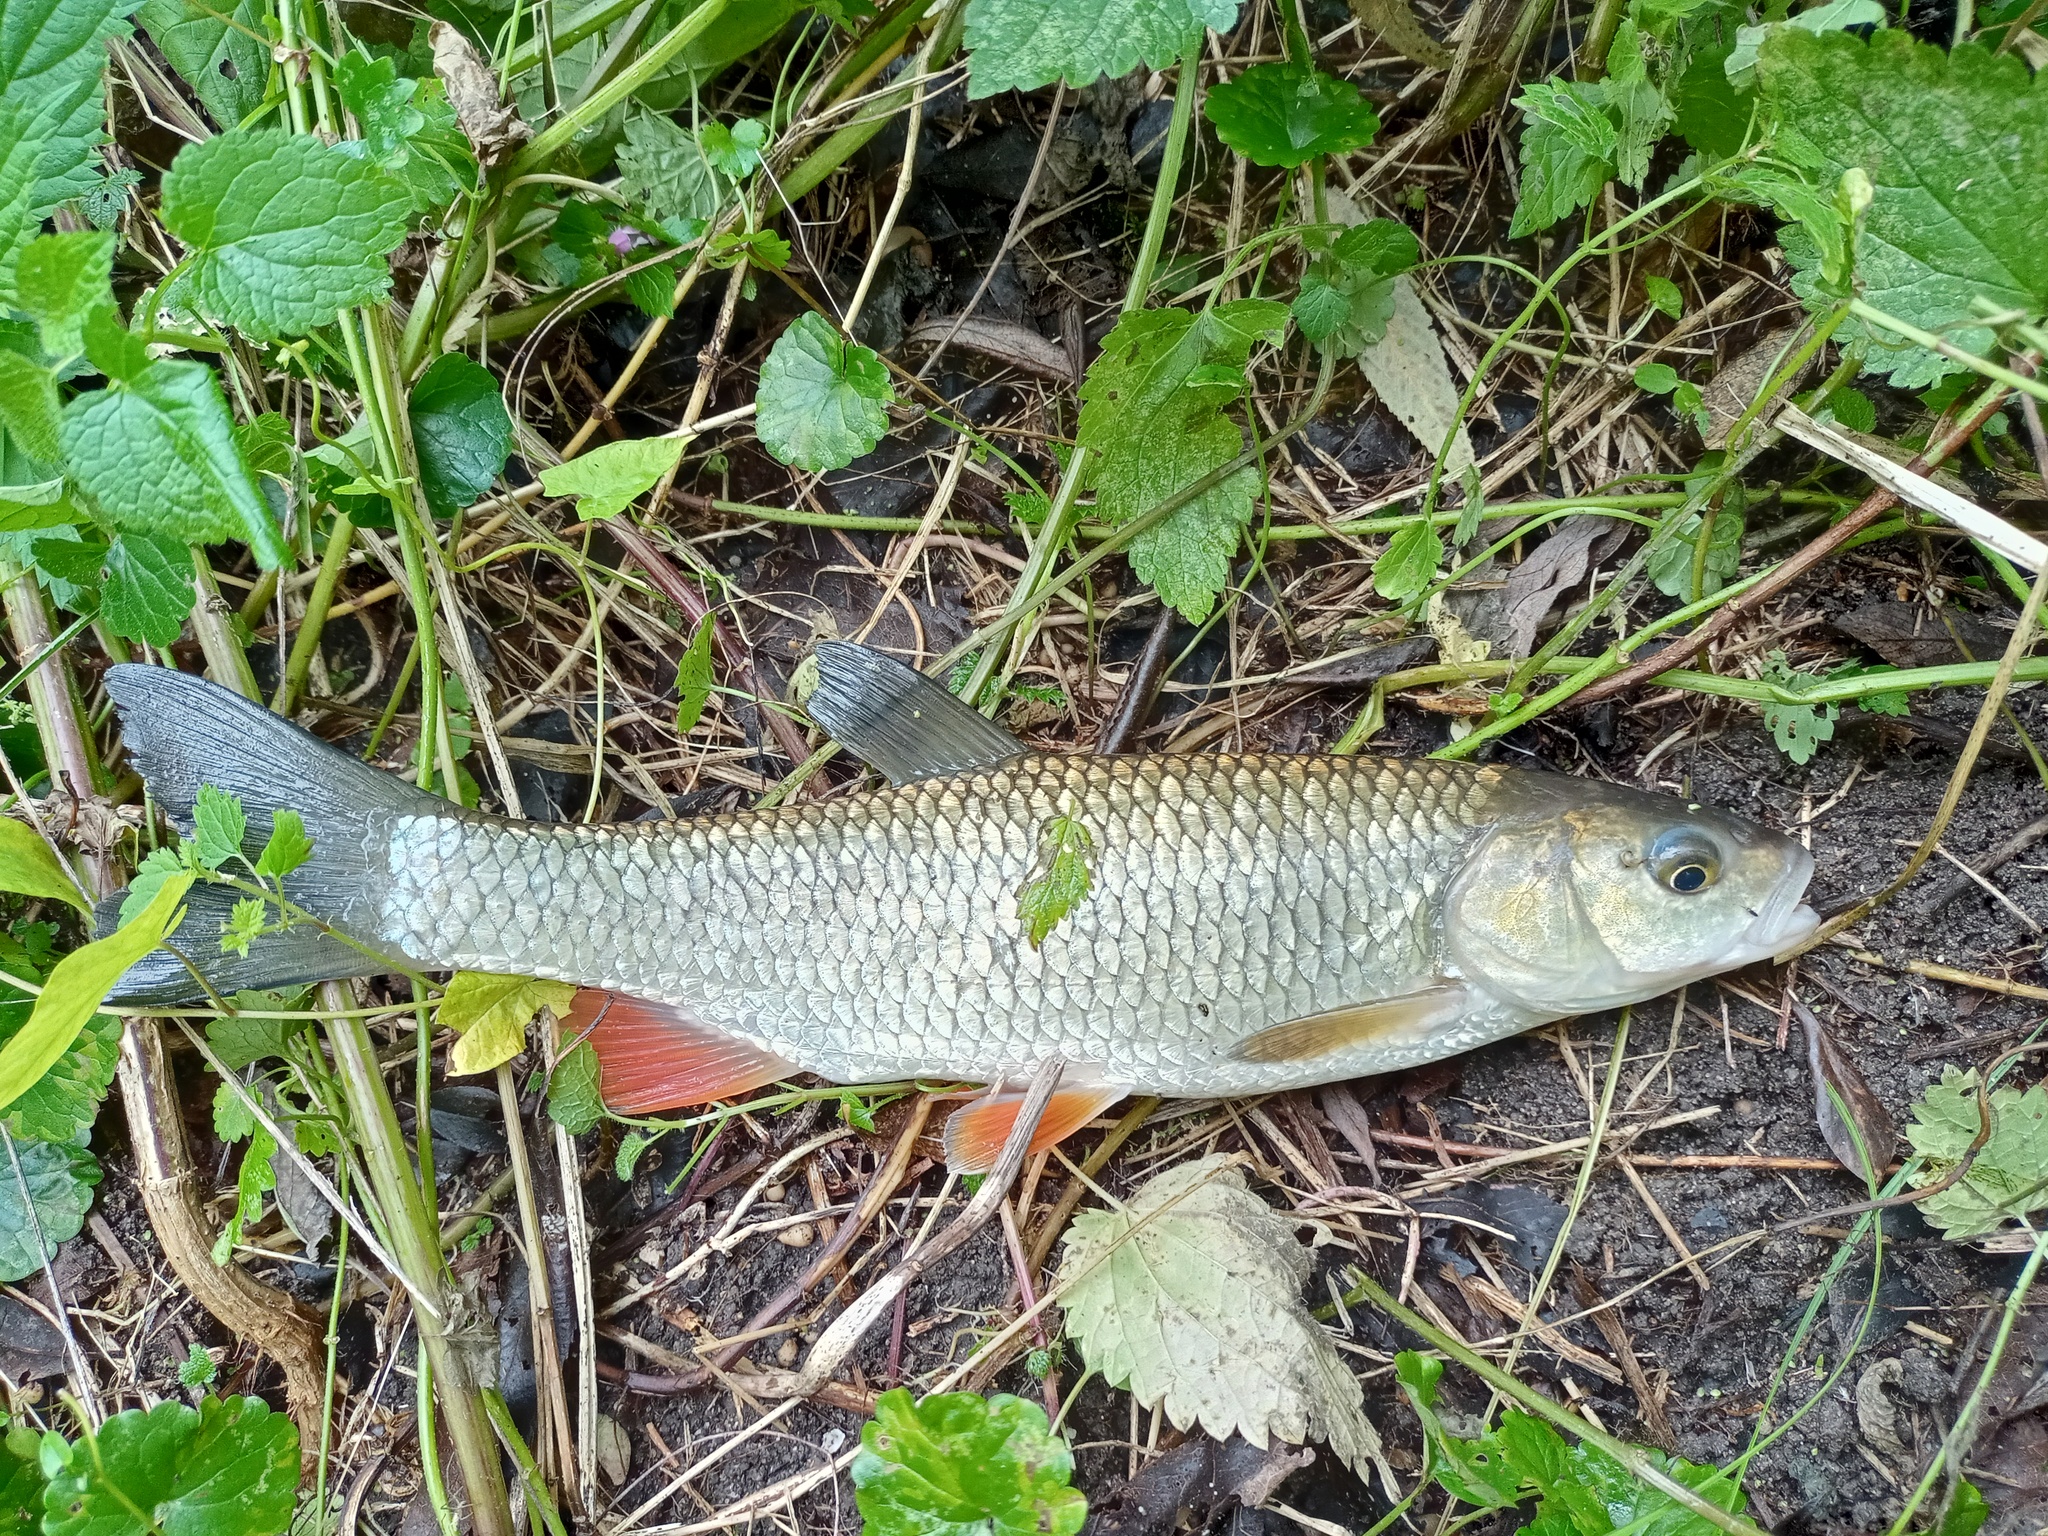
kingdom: Animalia
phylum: Chordata
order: Cypriniformes
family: Cyprinidae
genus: Squalius
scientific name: Squalius cephalus
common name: Chub
